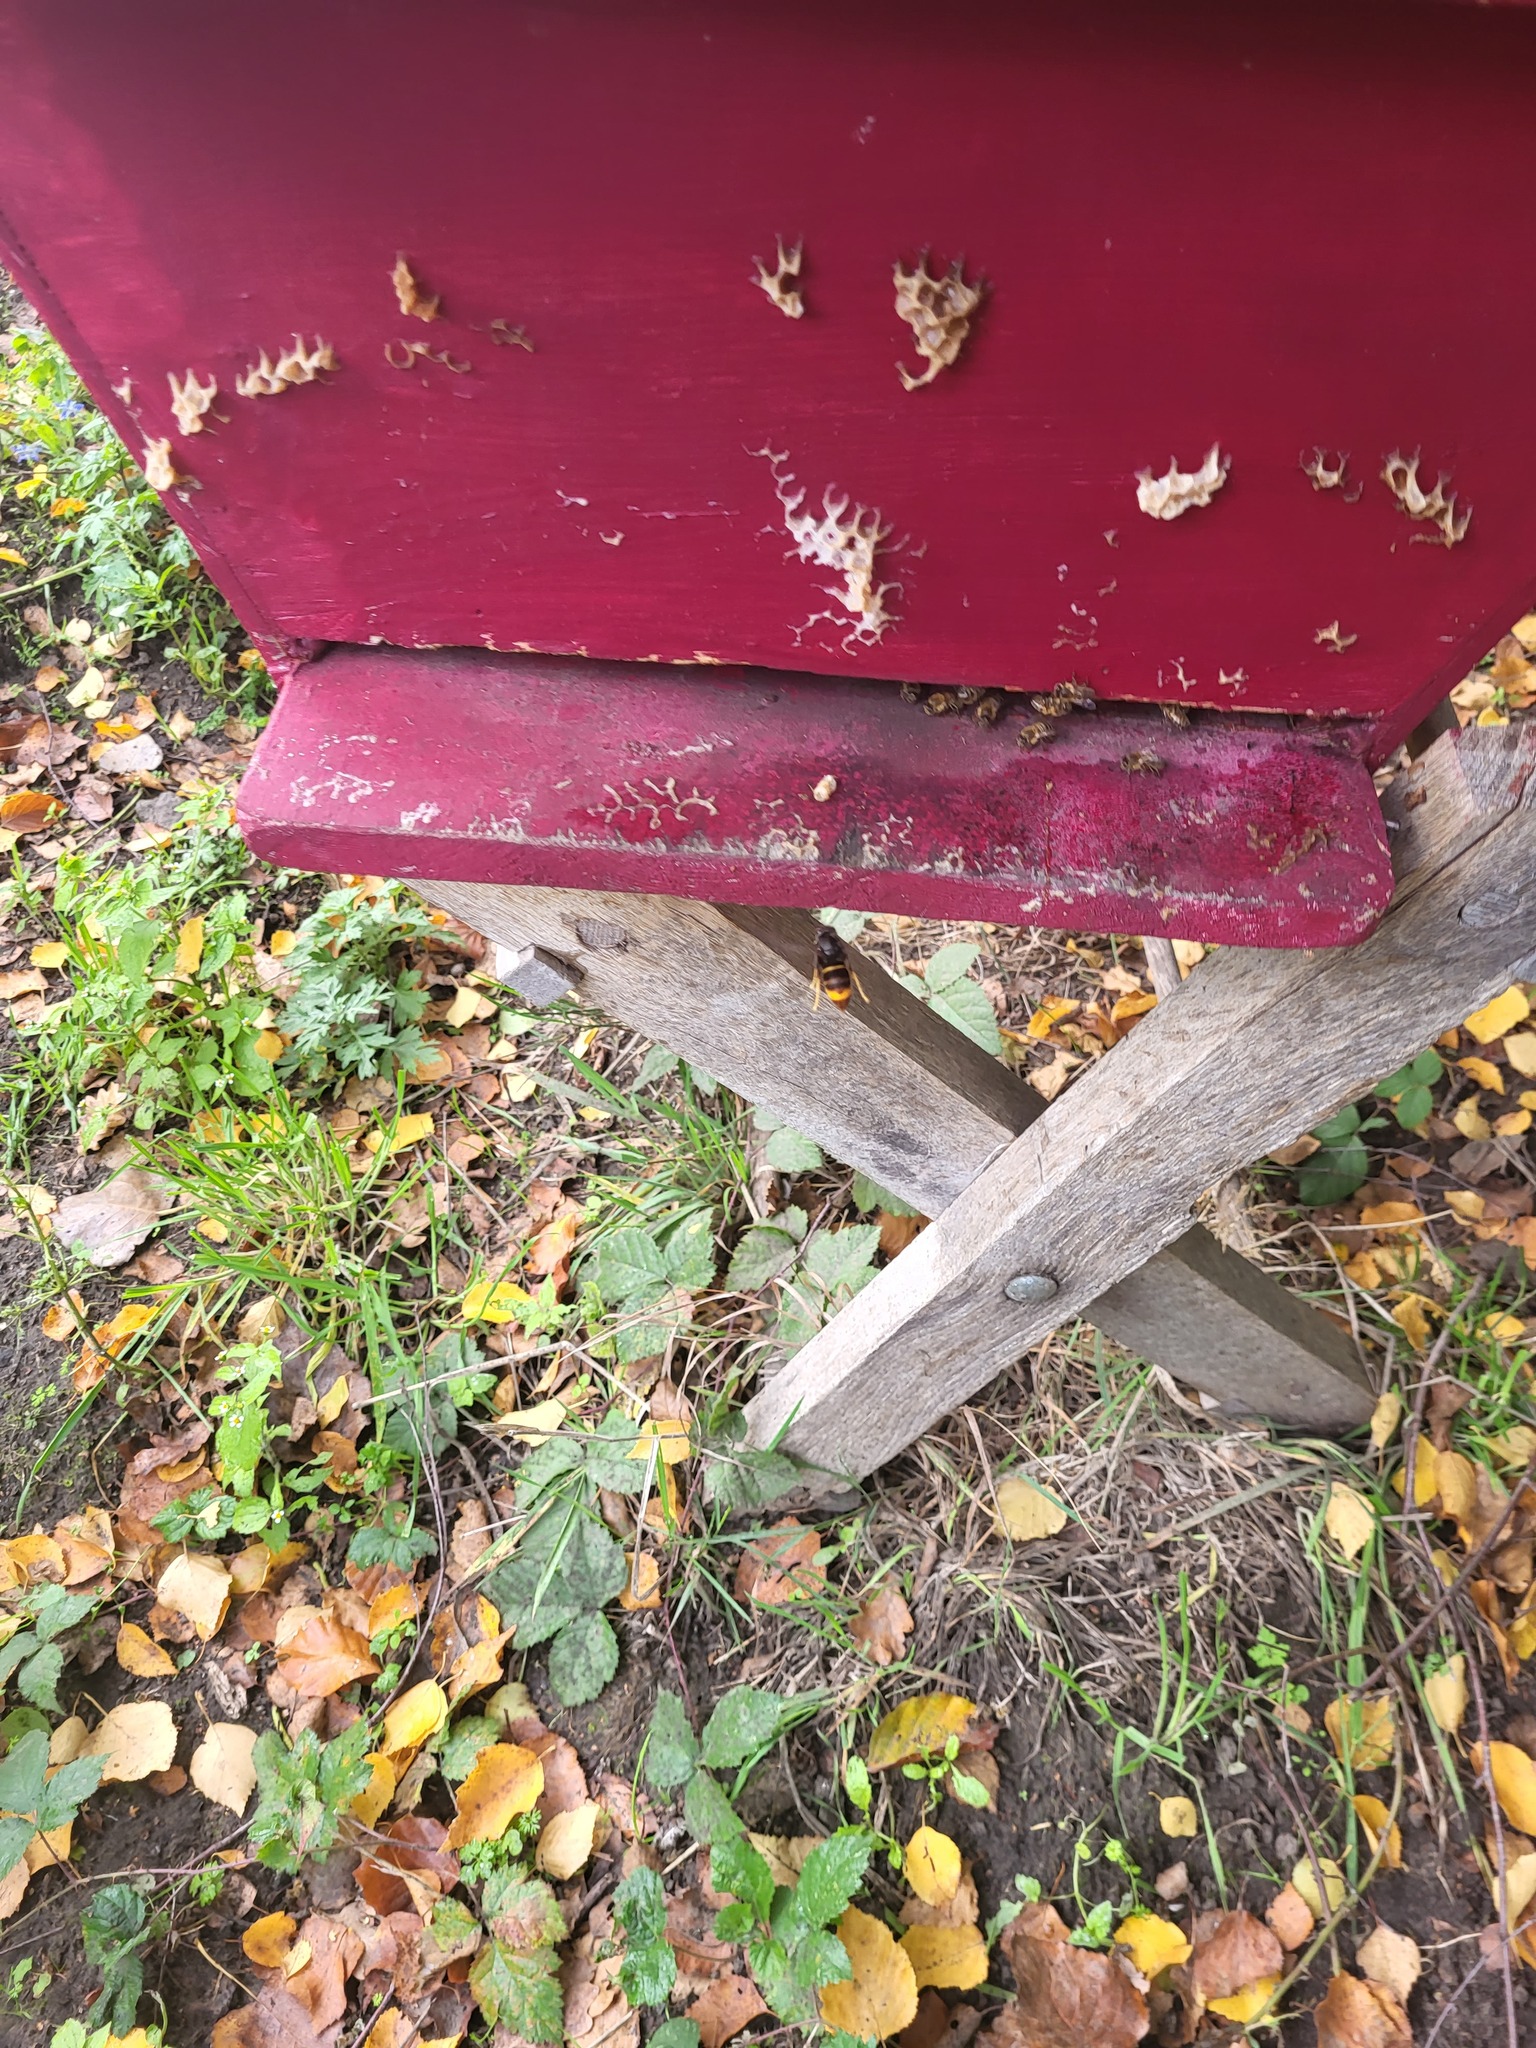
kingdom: Animalia
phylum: Arthropoda
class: Insecta
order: Hymenoptera
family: Vespidae
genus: Vespa
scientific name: Vespa velutina
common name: Asian hornet
